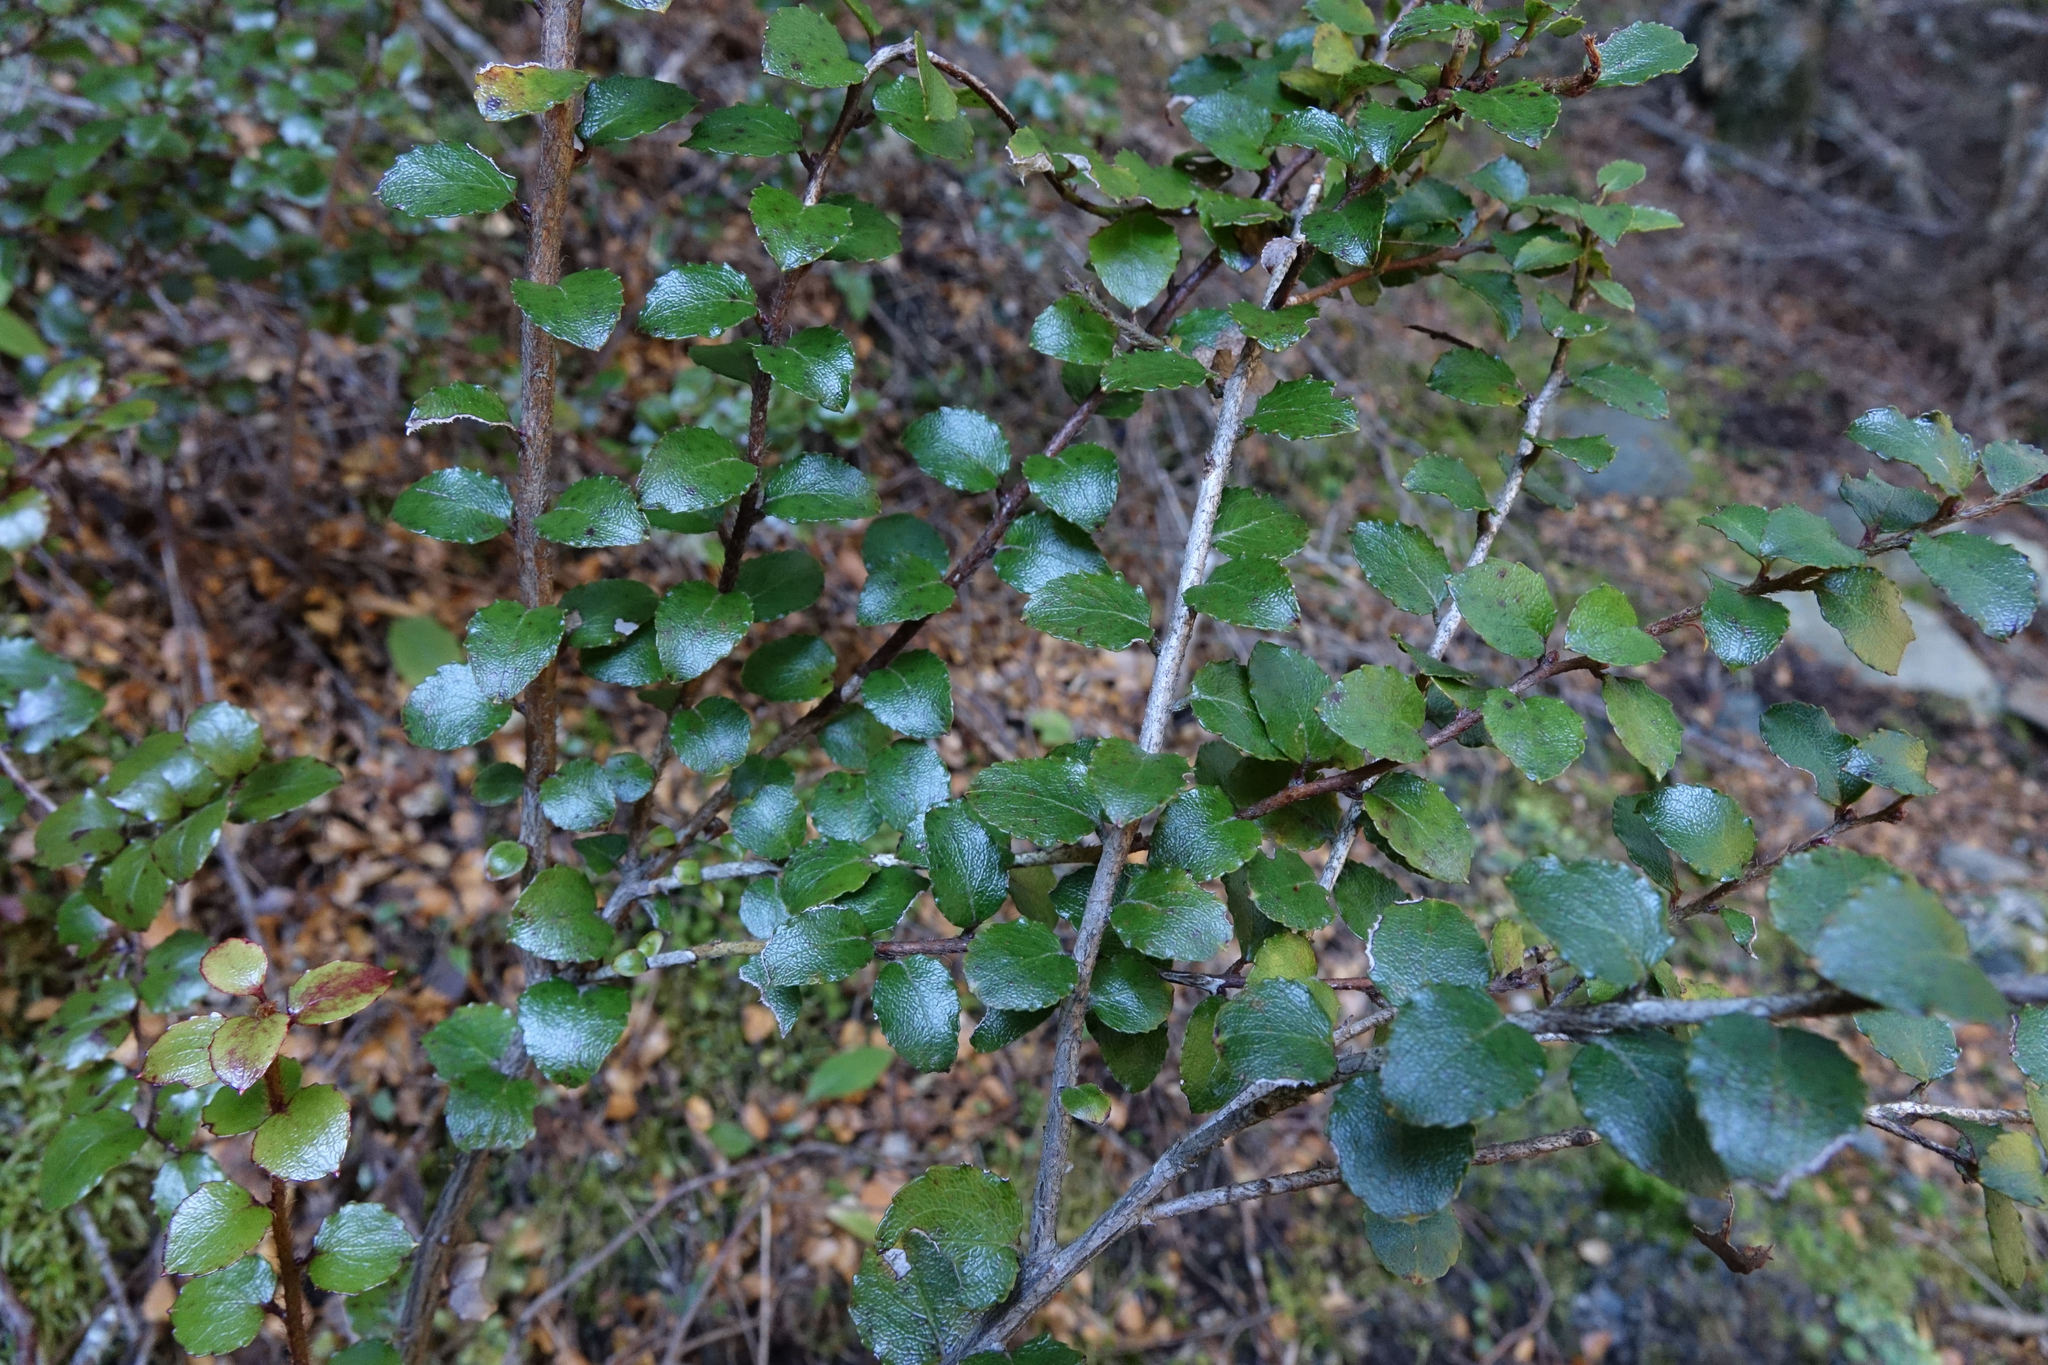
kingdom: Plantae
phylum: Tracheophyta
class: Magnoliopsida
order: Ericales
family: Ericaceae
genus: Gaultheria
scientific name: Gaultheria antipoda
